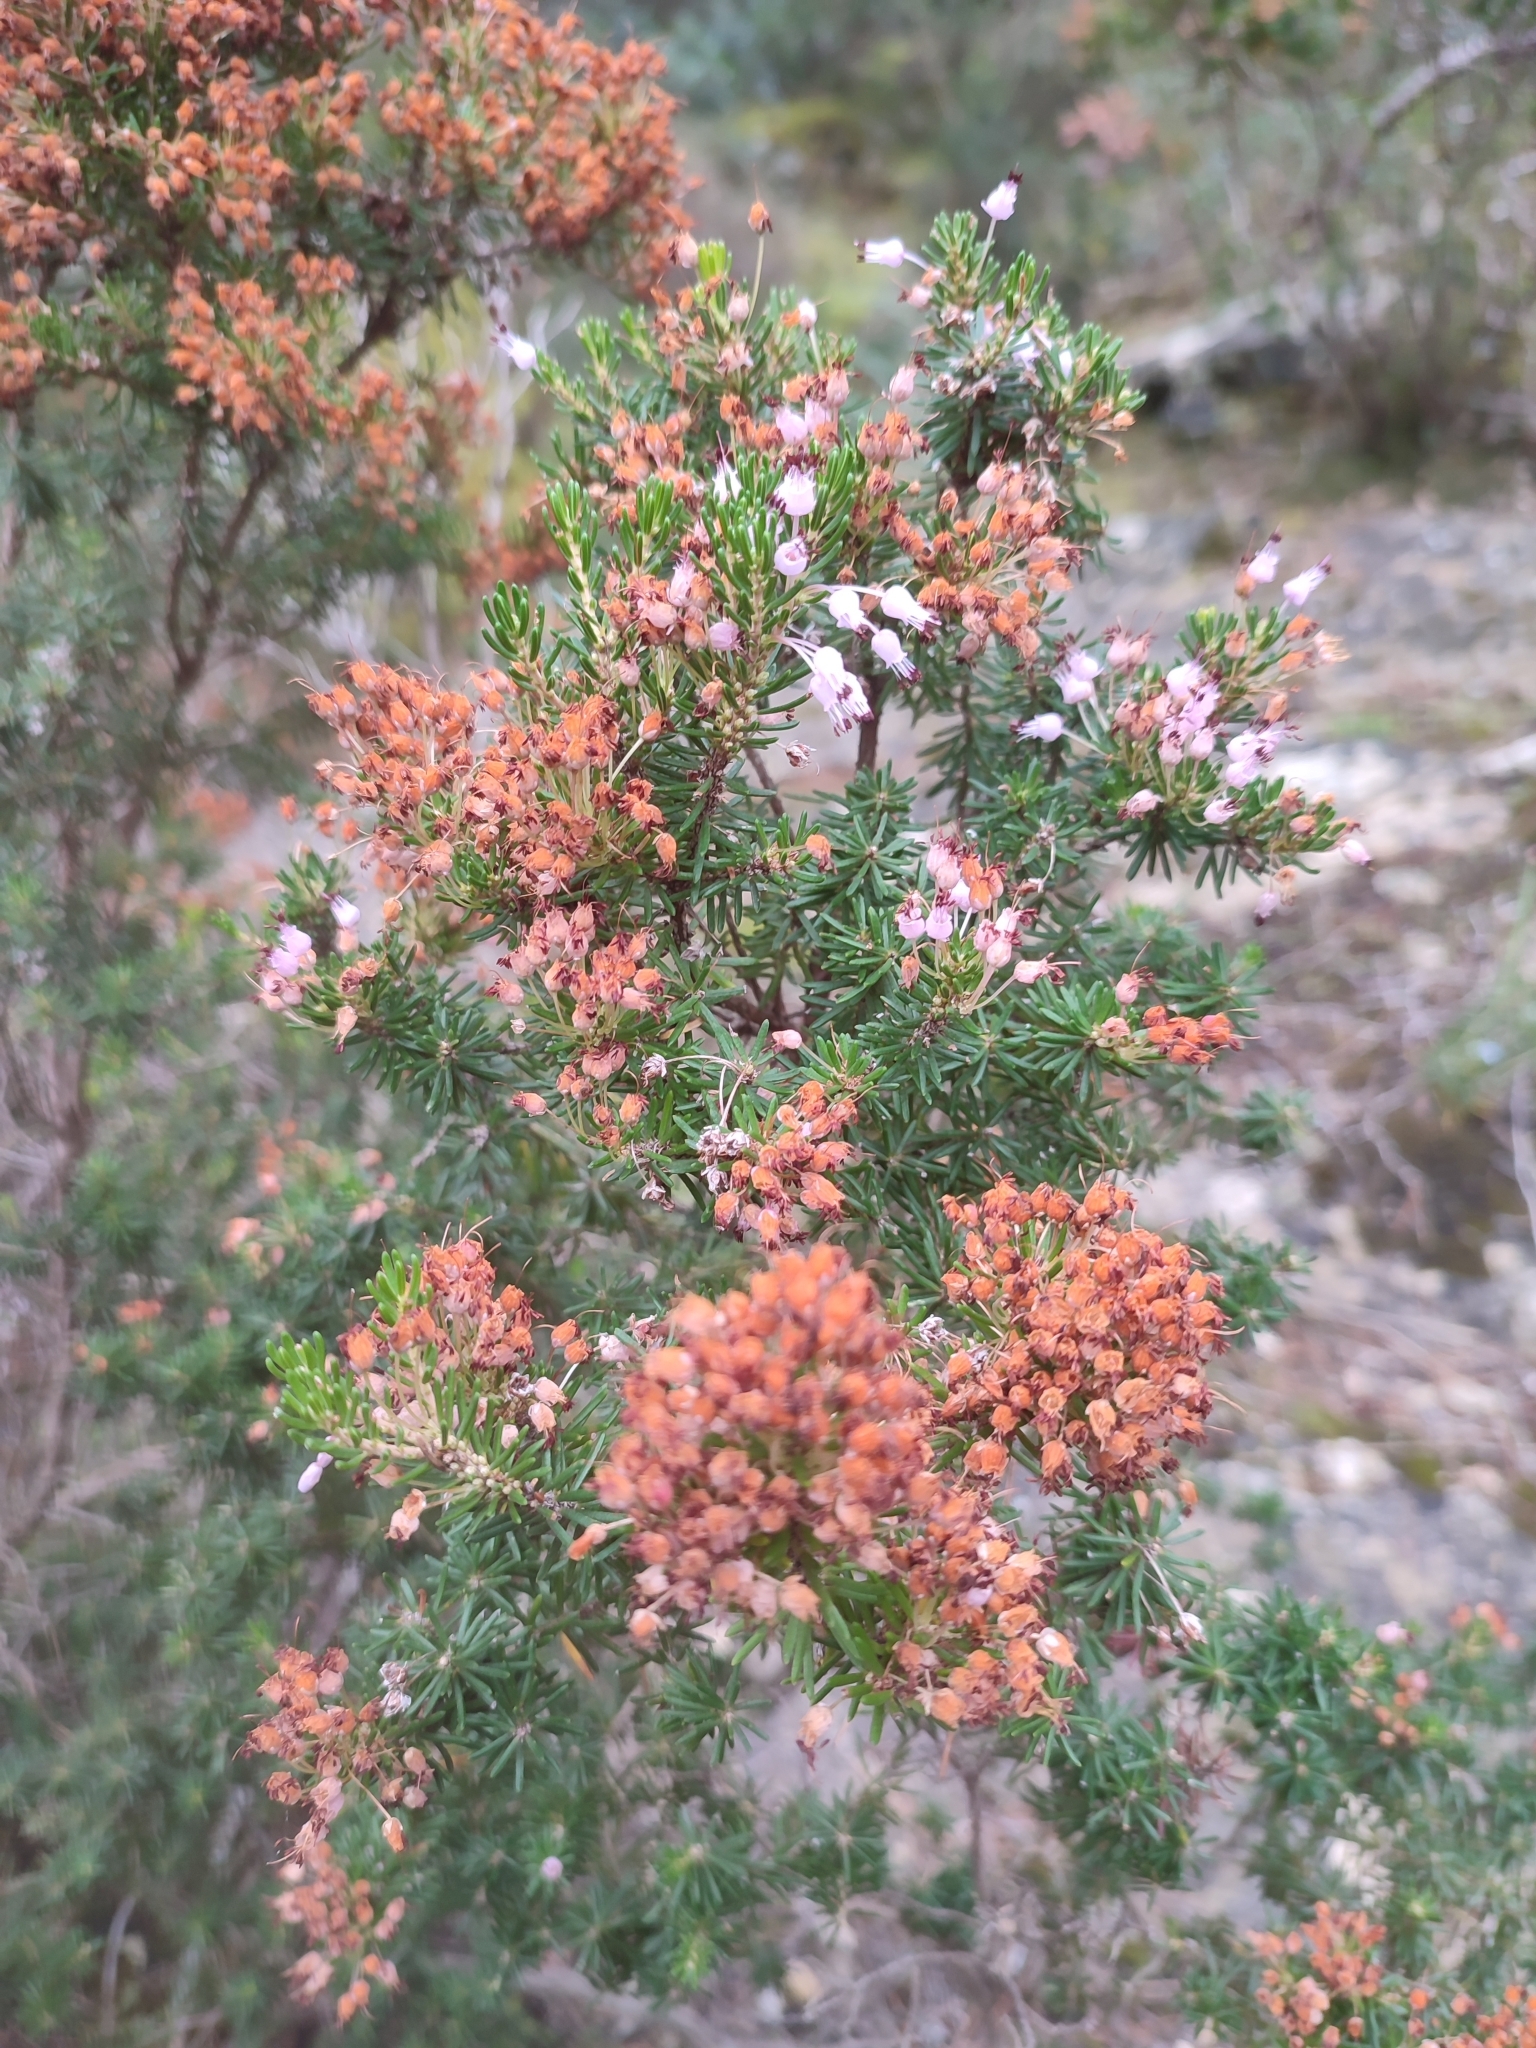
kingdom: Plantae
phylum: Tracheophyta
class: Magnoliopsida
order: Ericales
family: Ericaceae
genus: Erica
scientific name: Erica multiflora
